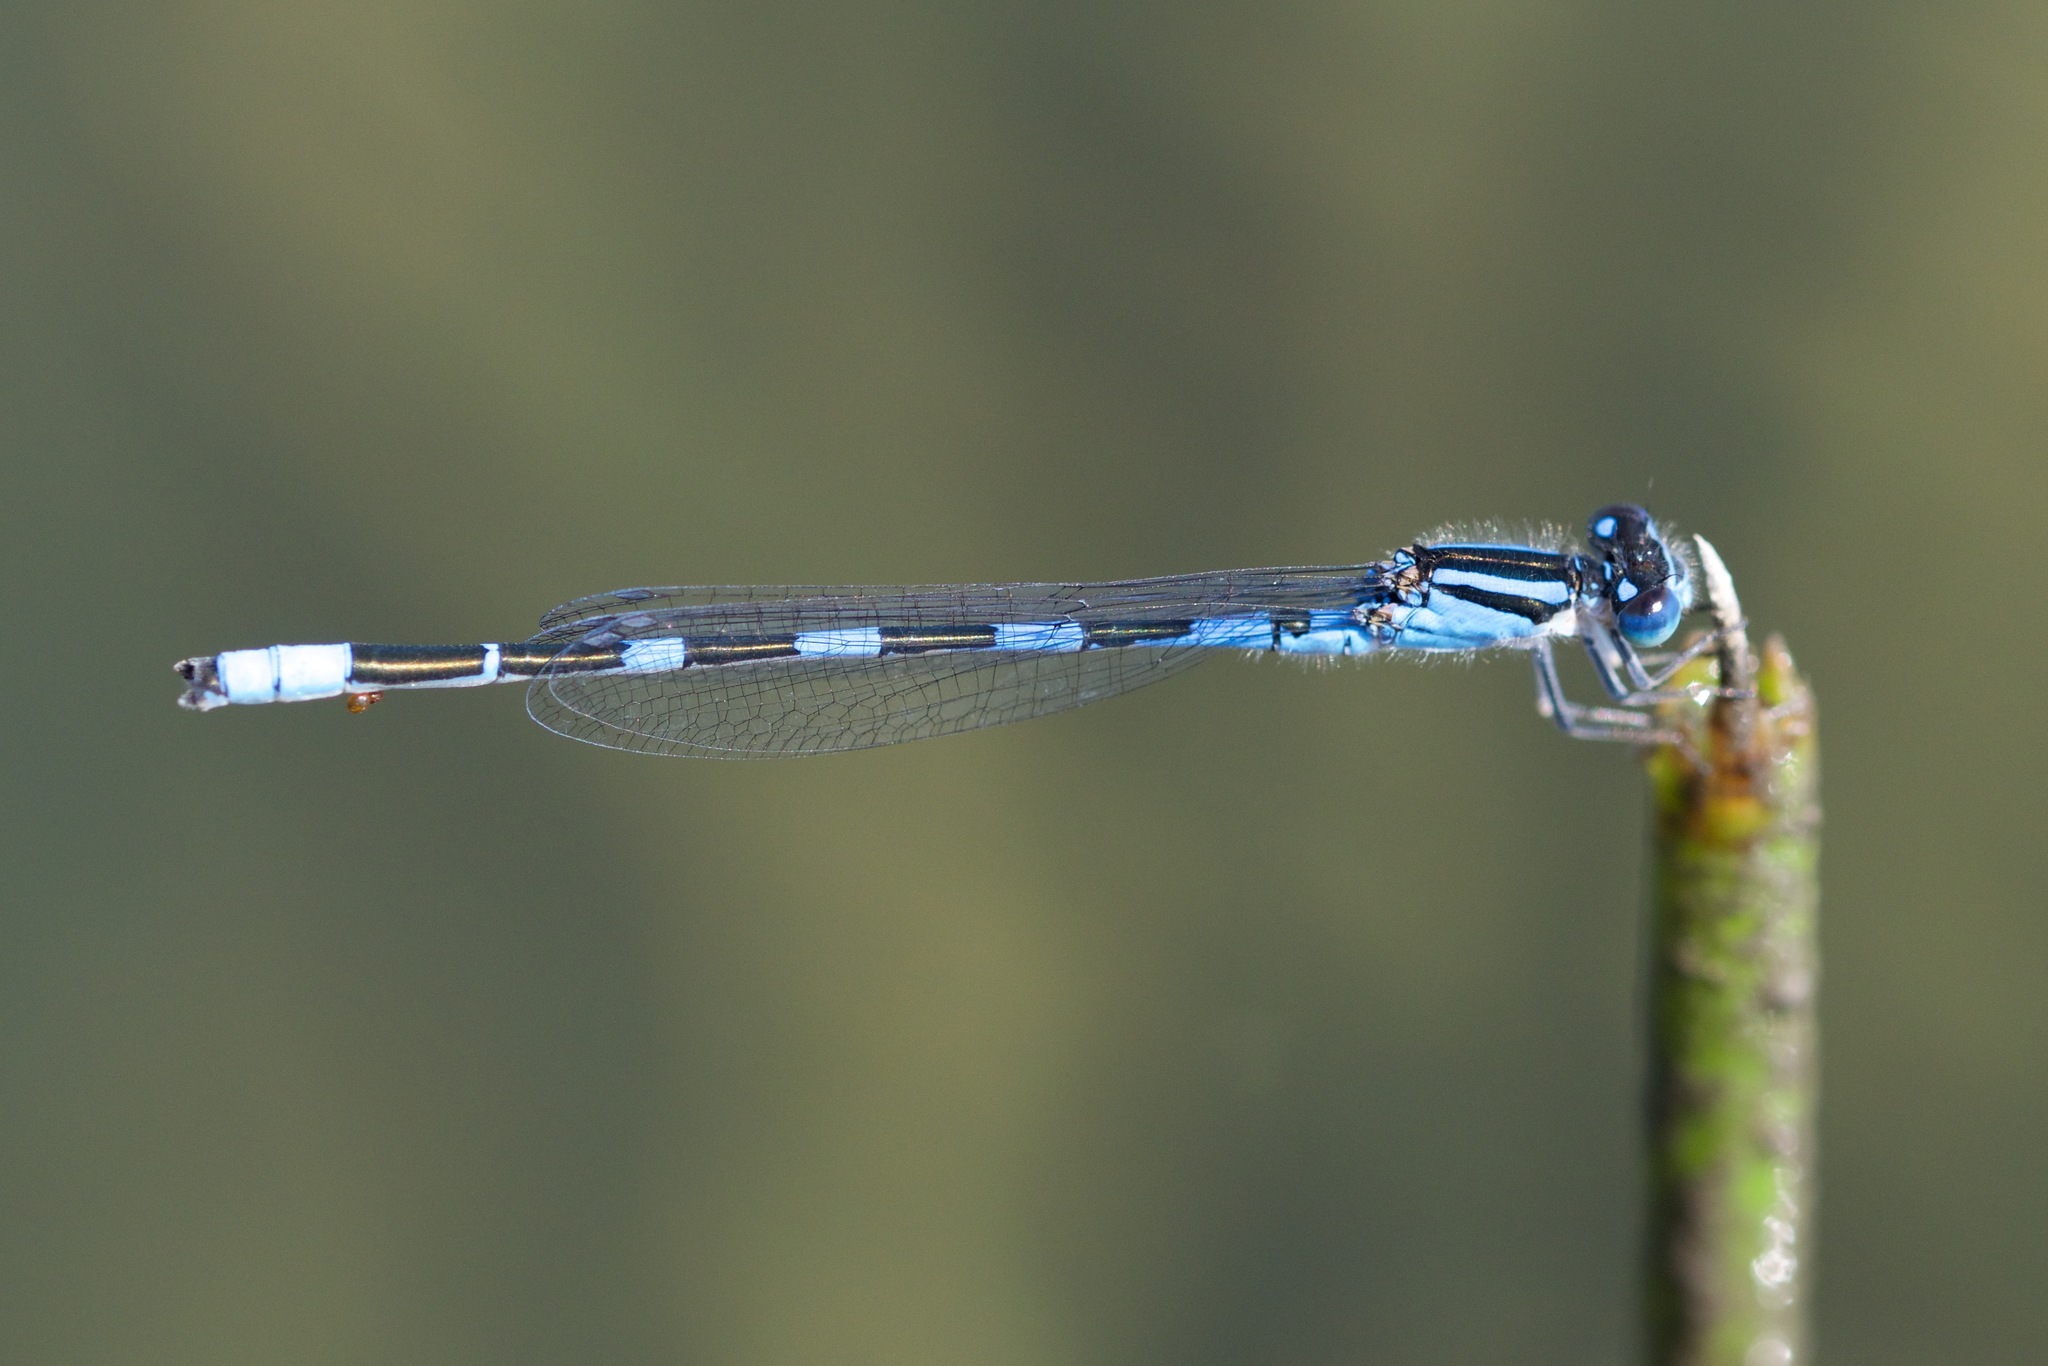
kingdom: Animalia
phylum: Arthropoda
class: Insecta
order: Odonata
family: Coenagrionidae
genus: Enallagma
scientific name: Enallagma carunculatum
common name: Tule bluet
